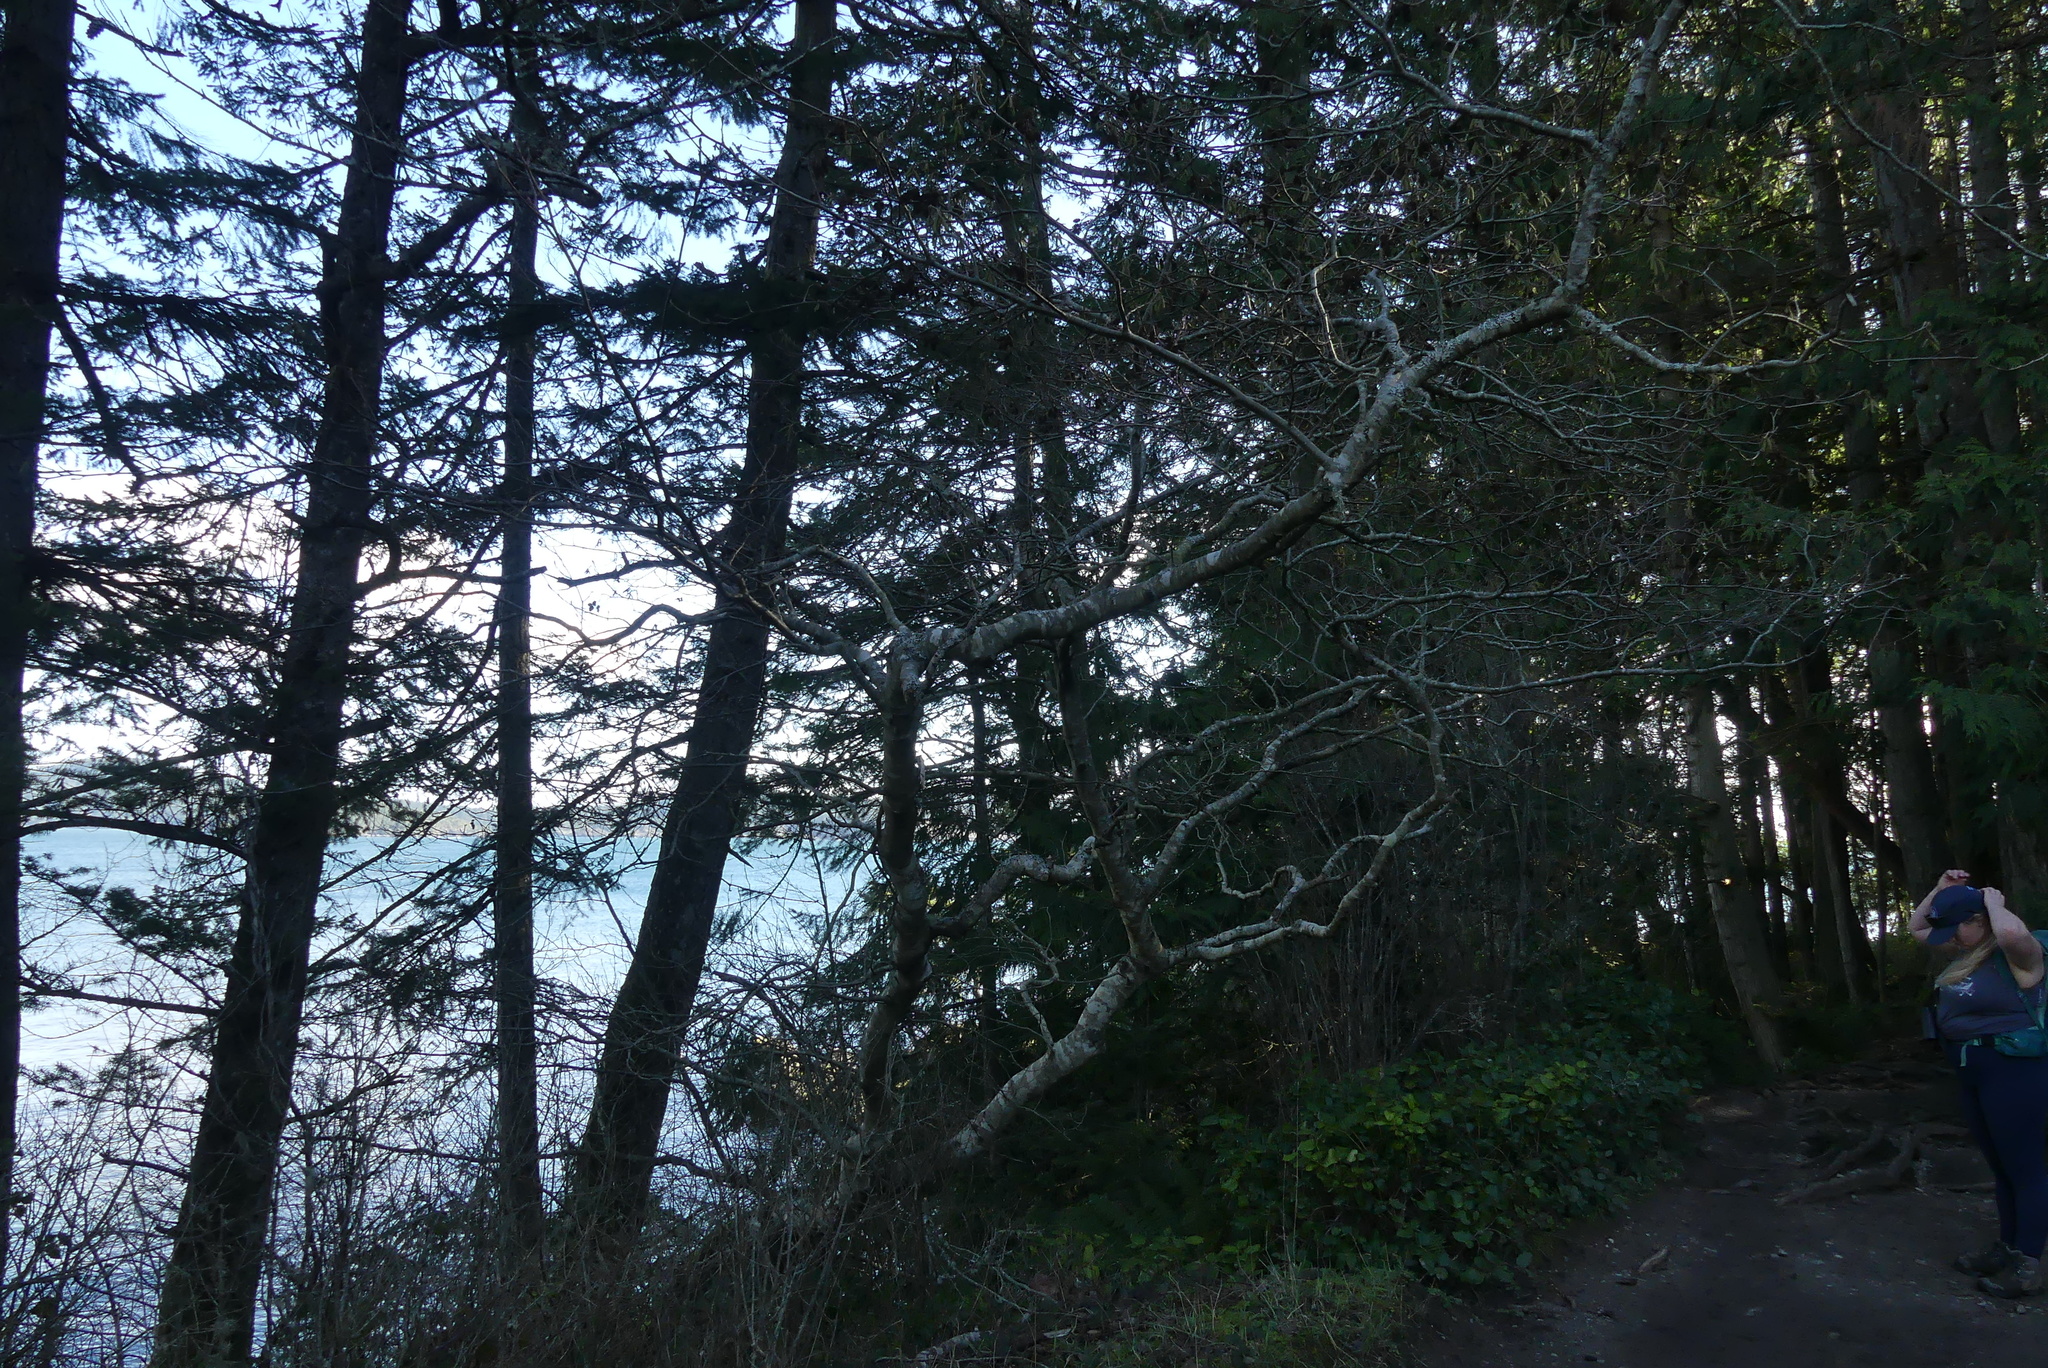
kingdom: Plantae
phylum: Tracheophyta
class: Magnoliopsida
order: Fagales
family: Betulaceae
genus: Alnus
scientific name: Alnus rubra
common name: Red alder
